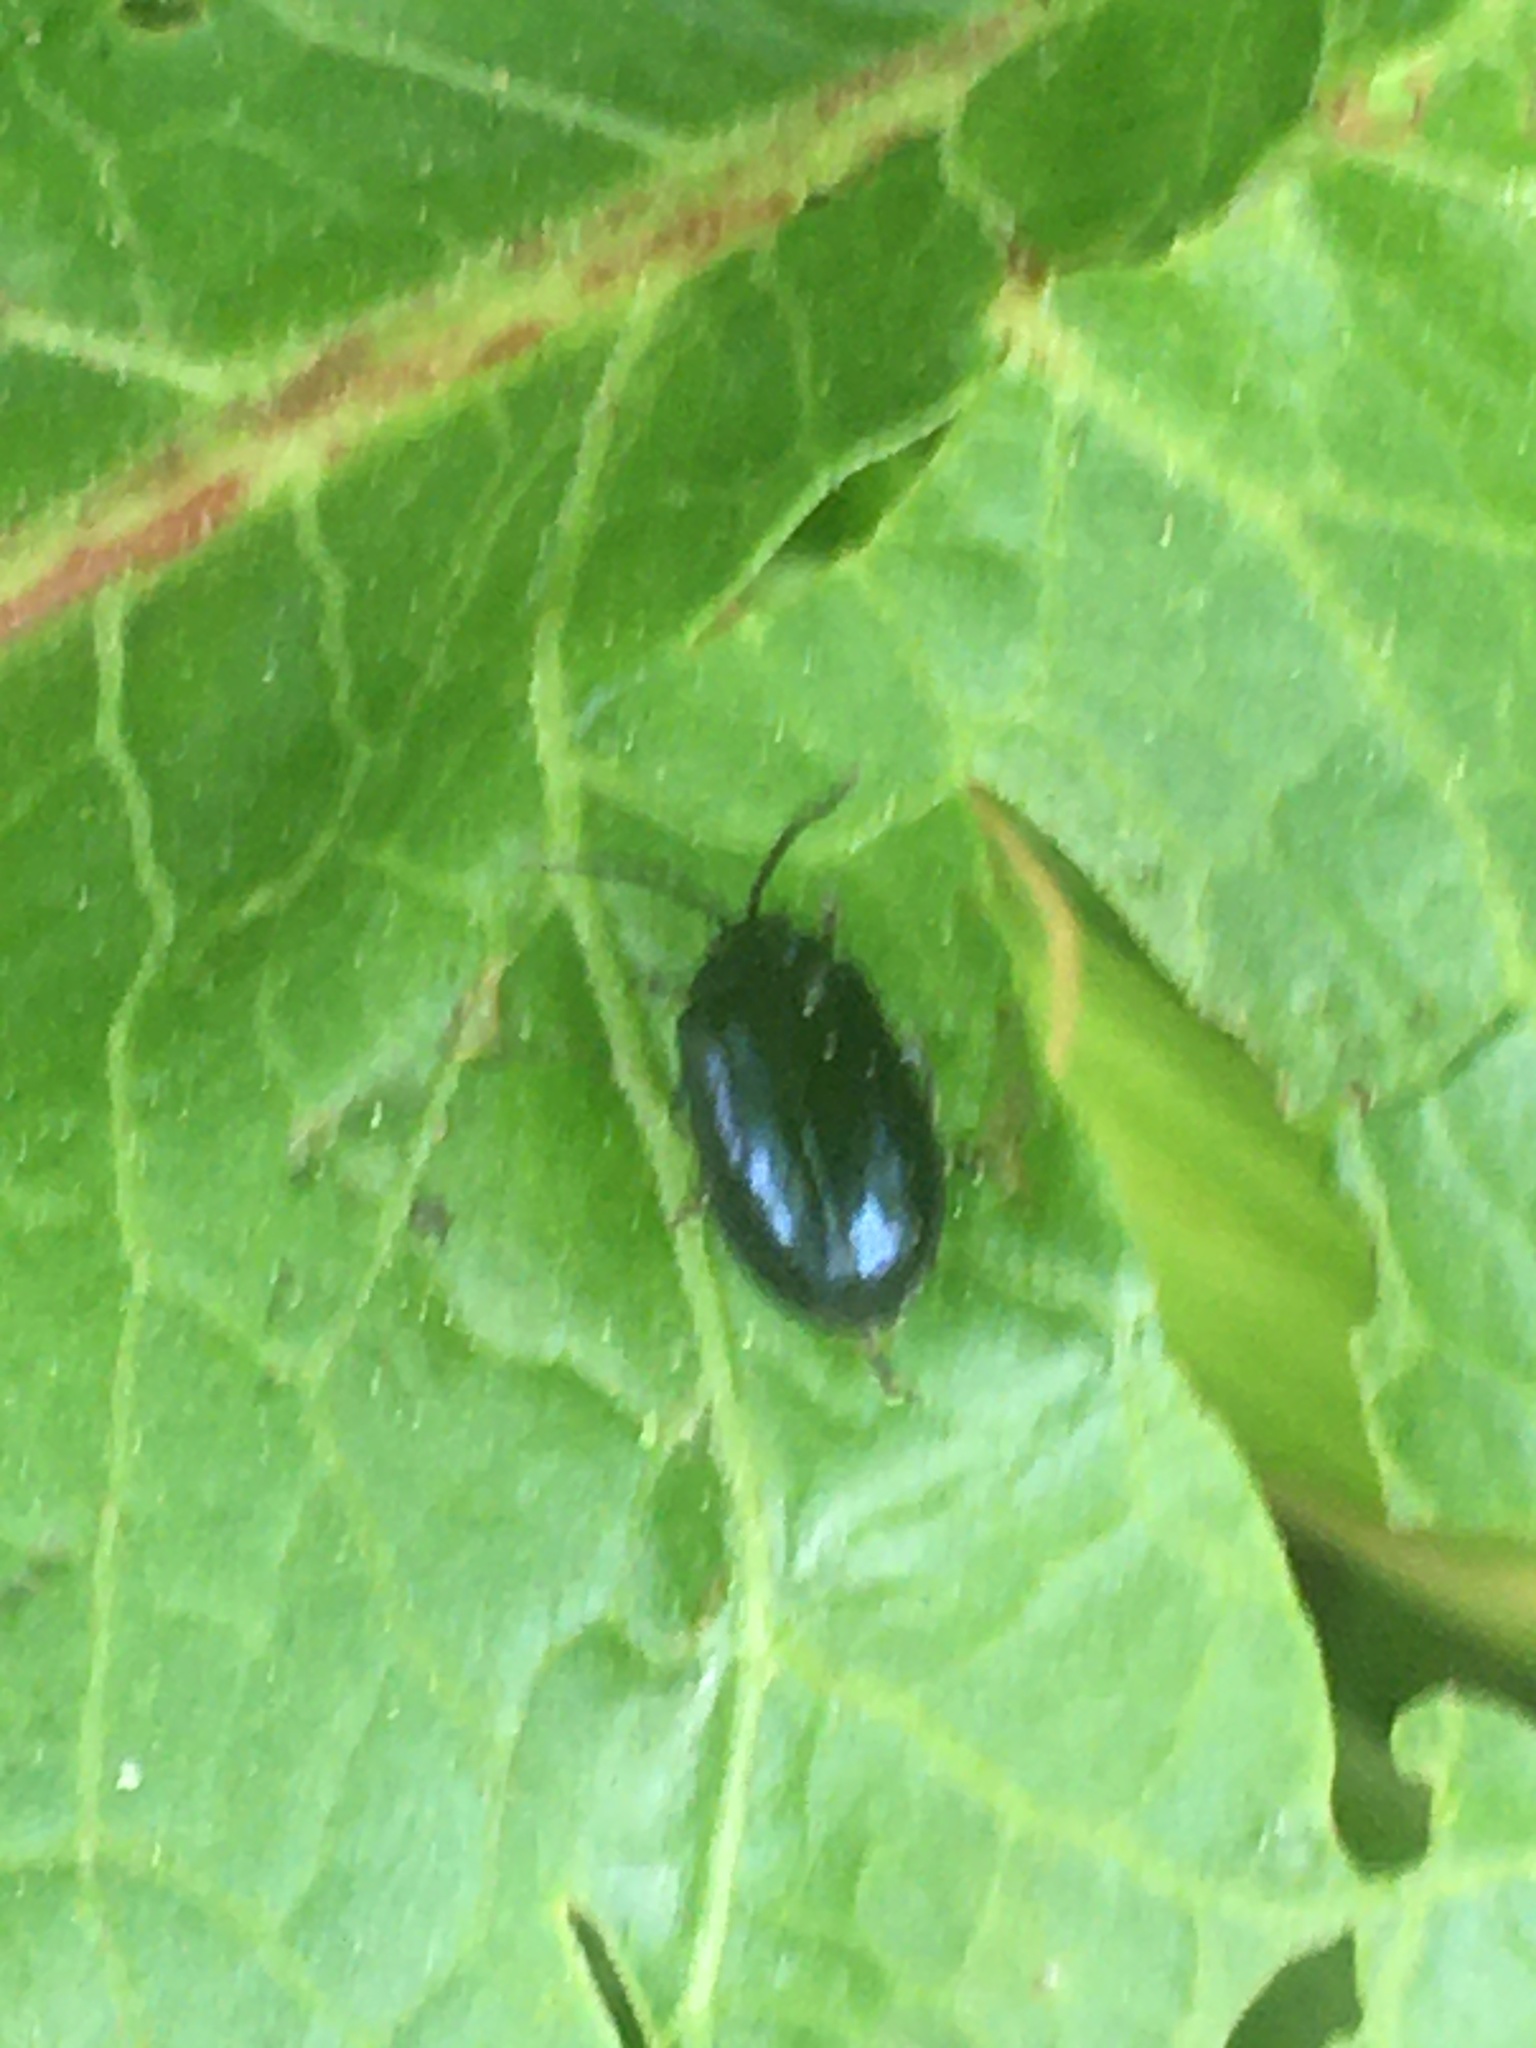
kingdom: Animalia
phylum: Arthropoda
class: Insecta
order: Coleoptera
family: Chrysomelidae
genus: Agelastica
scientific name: Agelastica alni
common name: Alder leaf beetle
